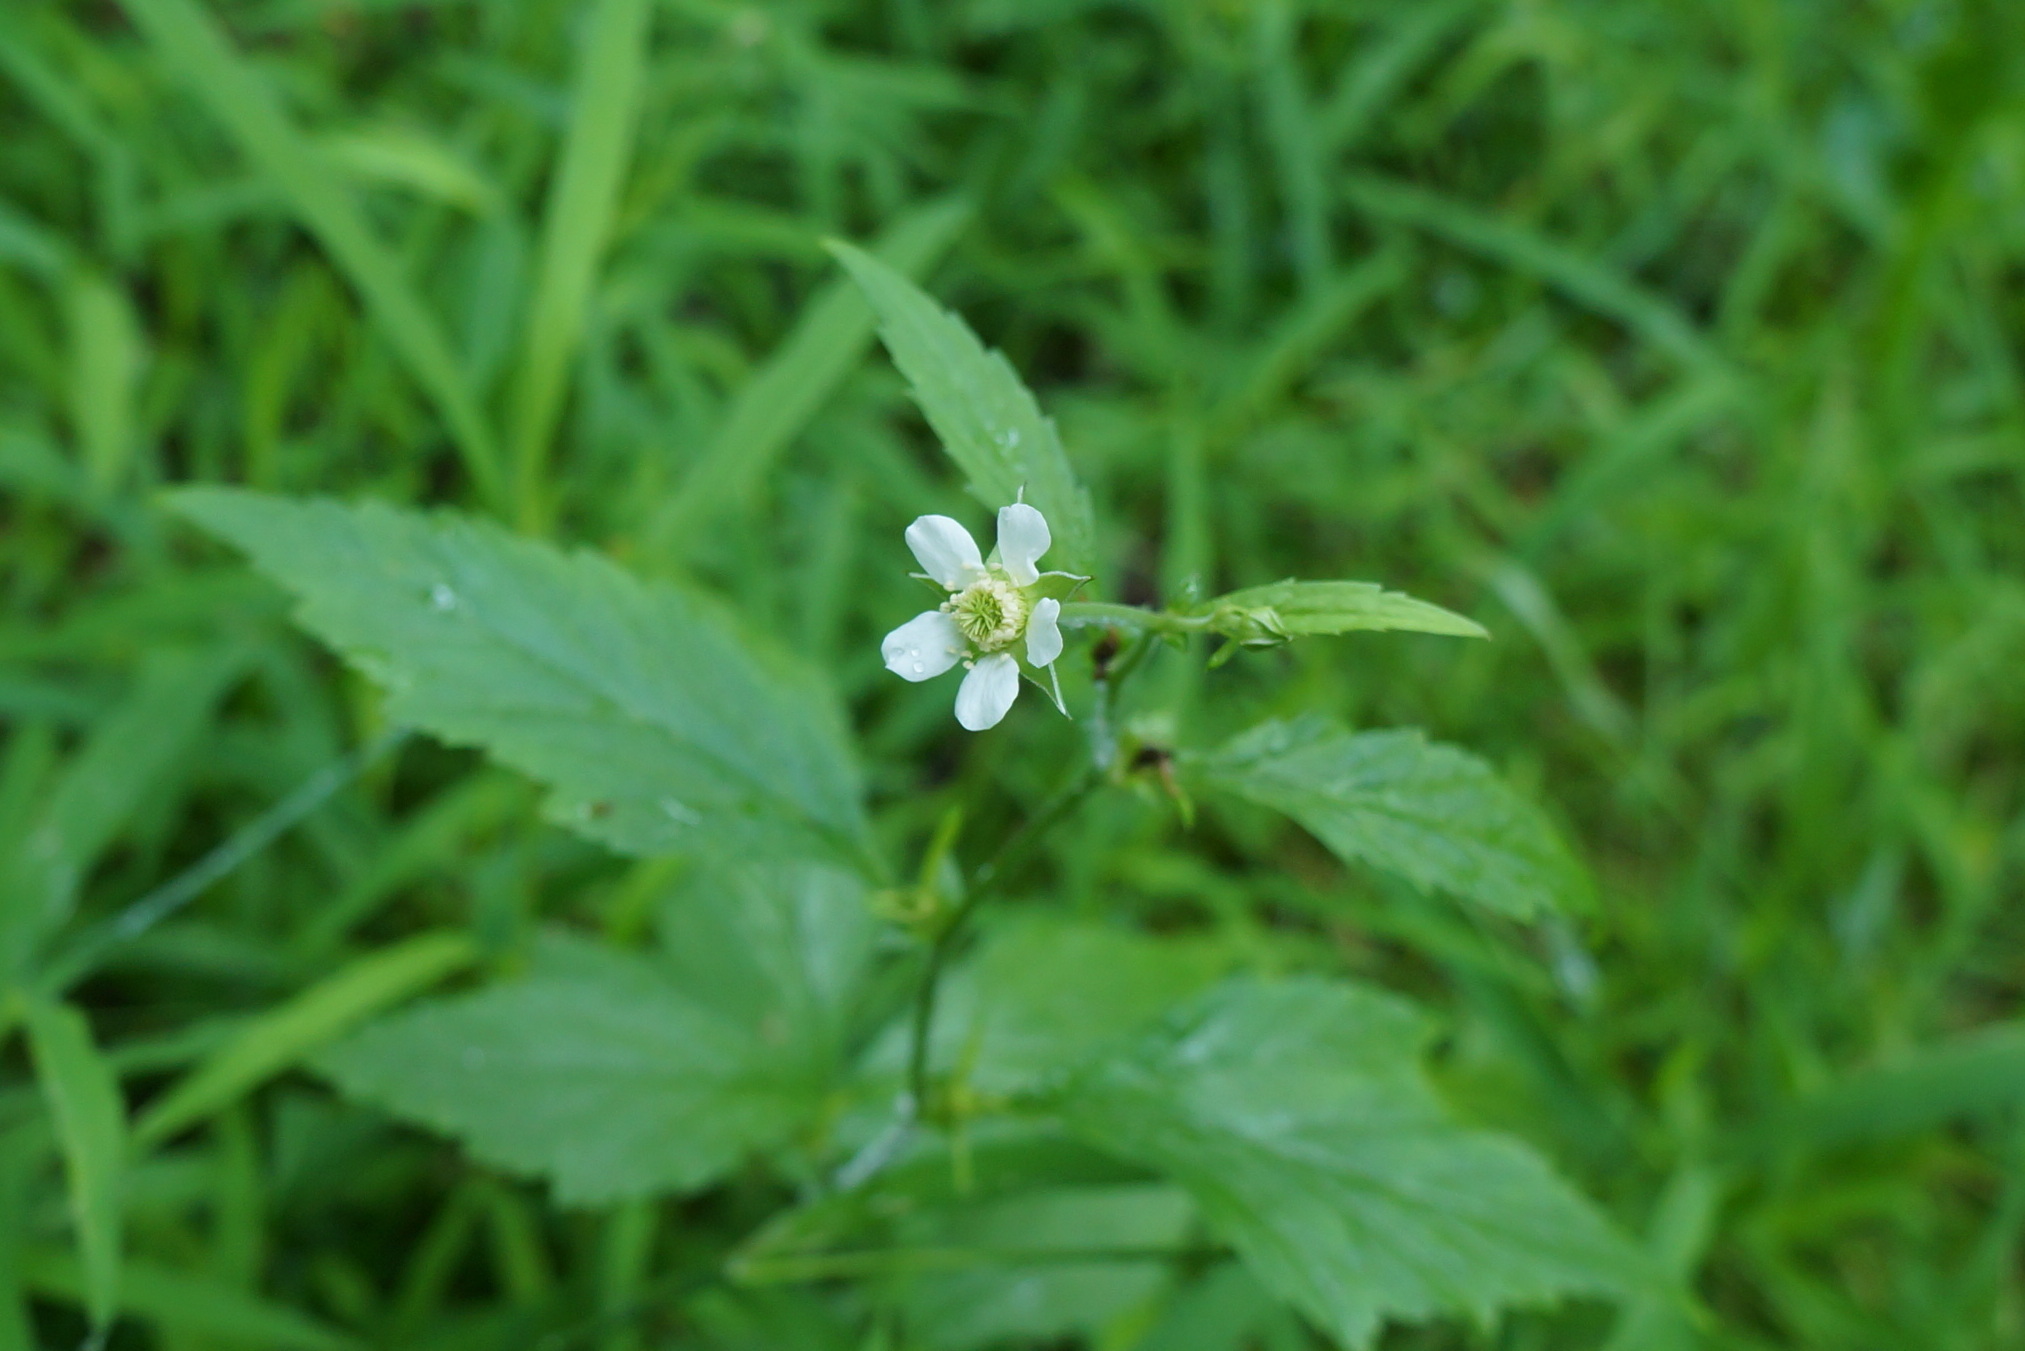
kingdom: Plantae
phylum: Tracheophyta
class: Magnoliopsida
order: Rosales
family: Rosaceae
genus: Geum
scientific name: Geum canadense
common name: White avens
